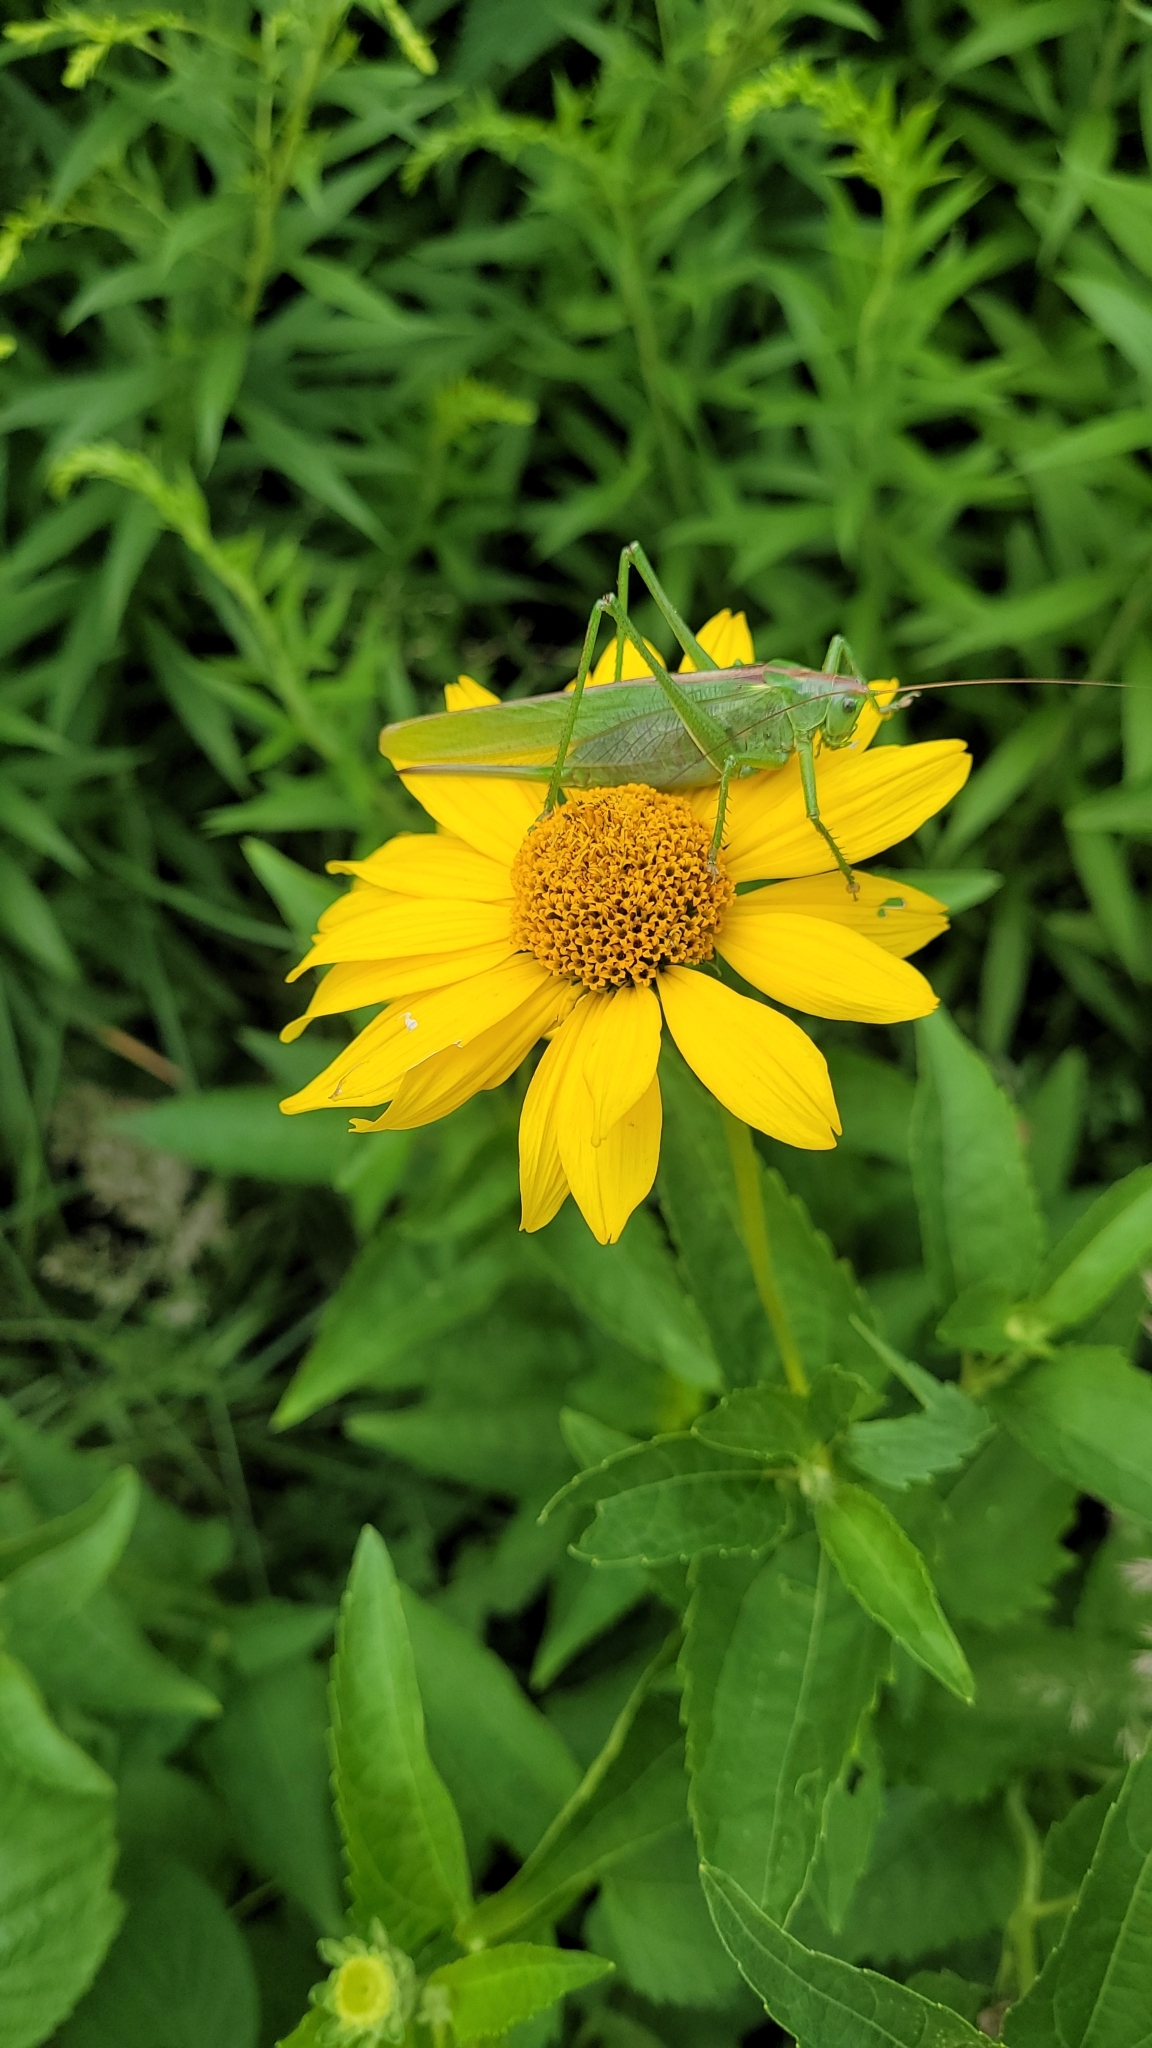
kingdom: Animalia
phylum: Arthropoda
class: Insecta
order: Orthoptera
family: Tettigoniidae
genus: Tettigonia
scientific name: Tettigonia viridissima
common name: Great green bush-cricket
